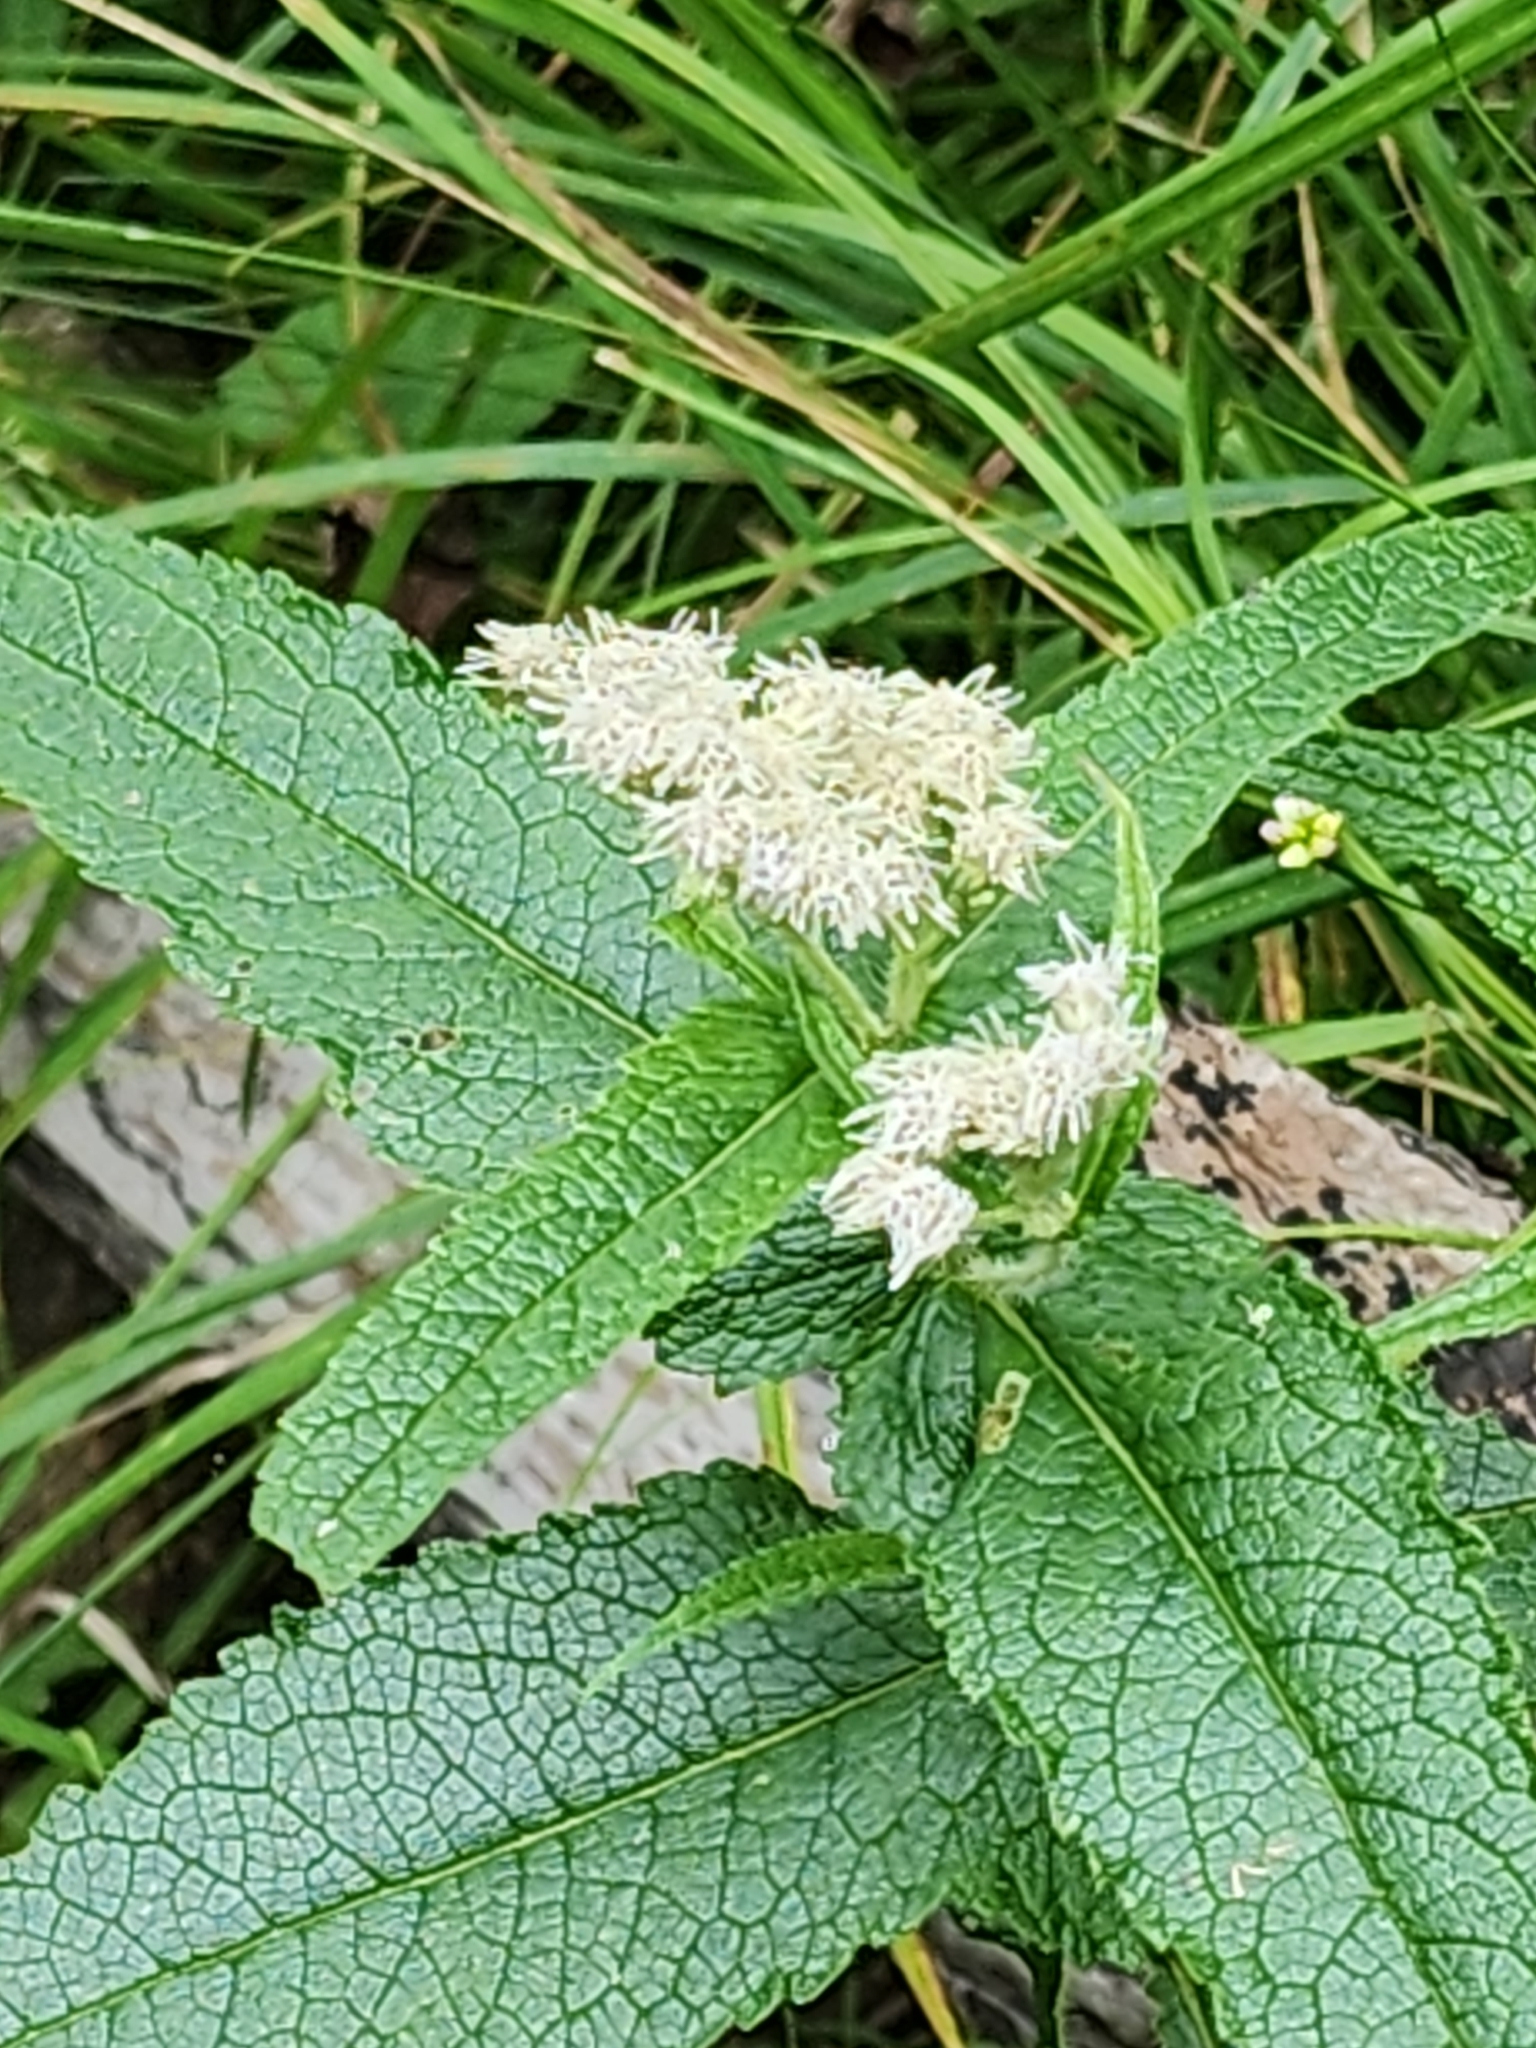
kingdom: Plantae
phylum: Tracheophyta
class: Magnoliopsida
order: Asterales
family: Asteraceae
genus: Eupatorium
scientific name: Eupatorium perfoliatum
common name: Boneset
